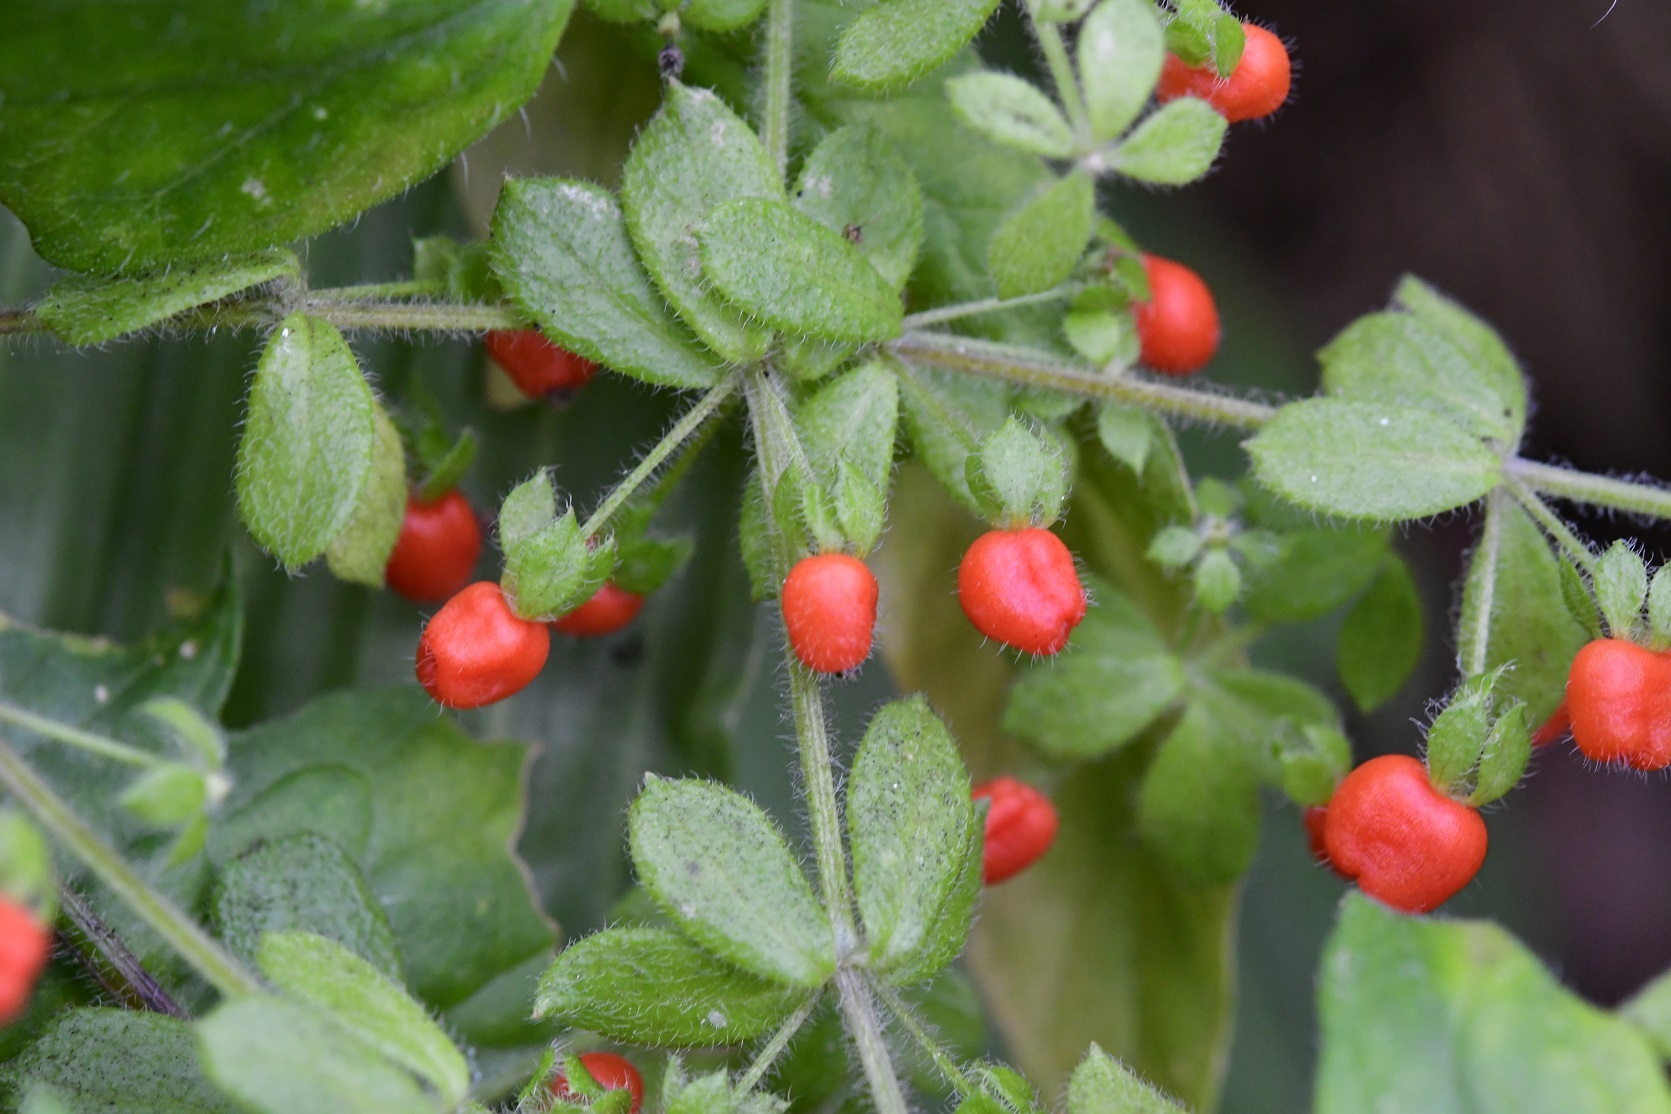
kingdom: Plantae
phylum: Tracheophyta
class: Magnoliopsida
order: Gentianales
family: Rubiaceae
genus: Galium
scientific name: Galium hypocarpium
